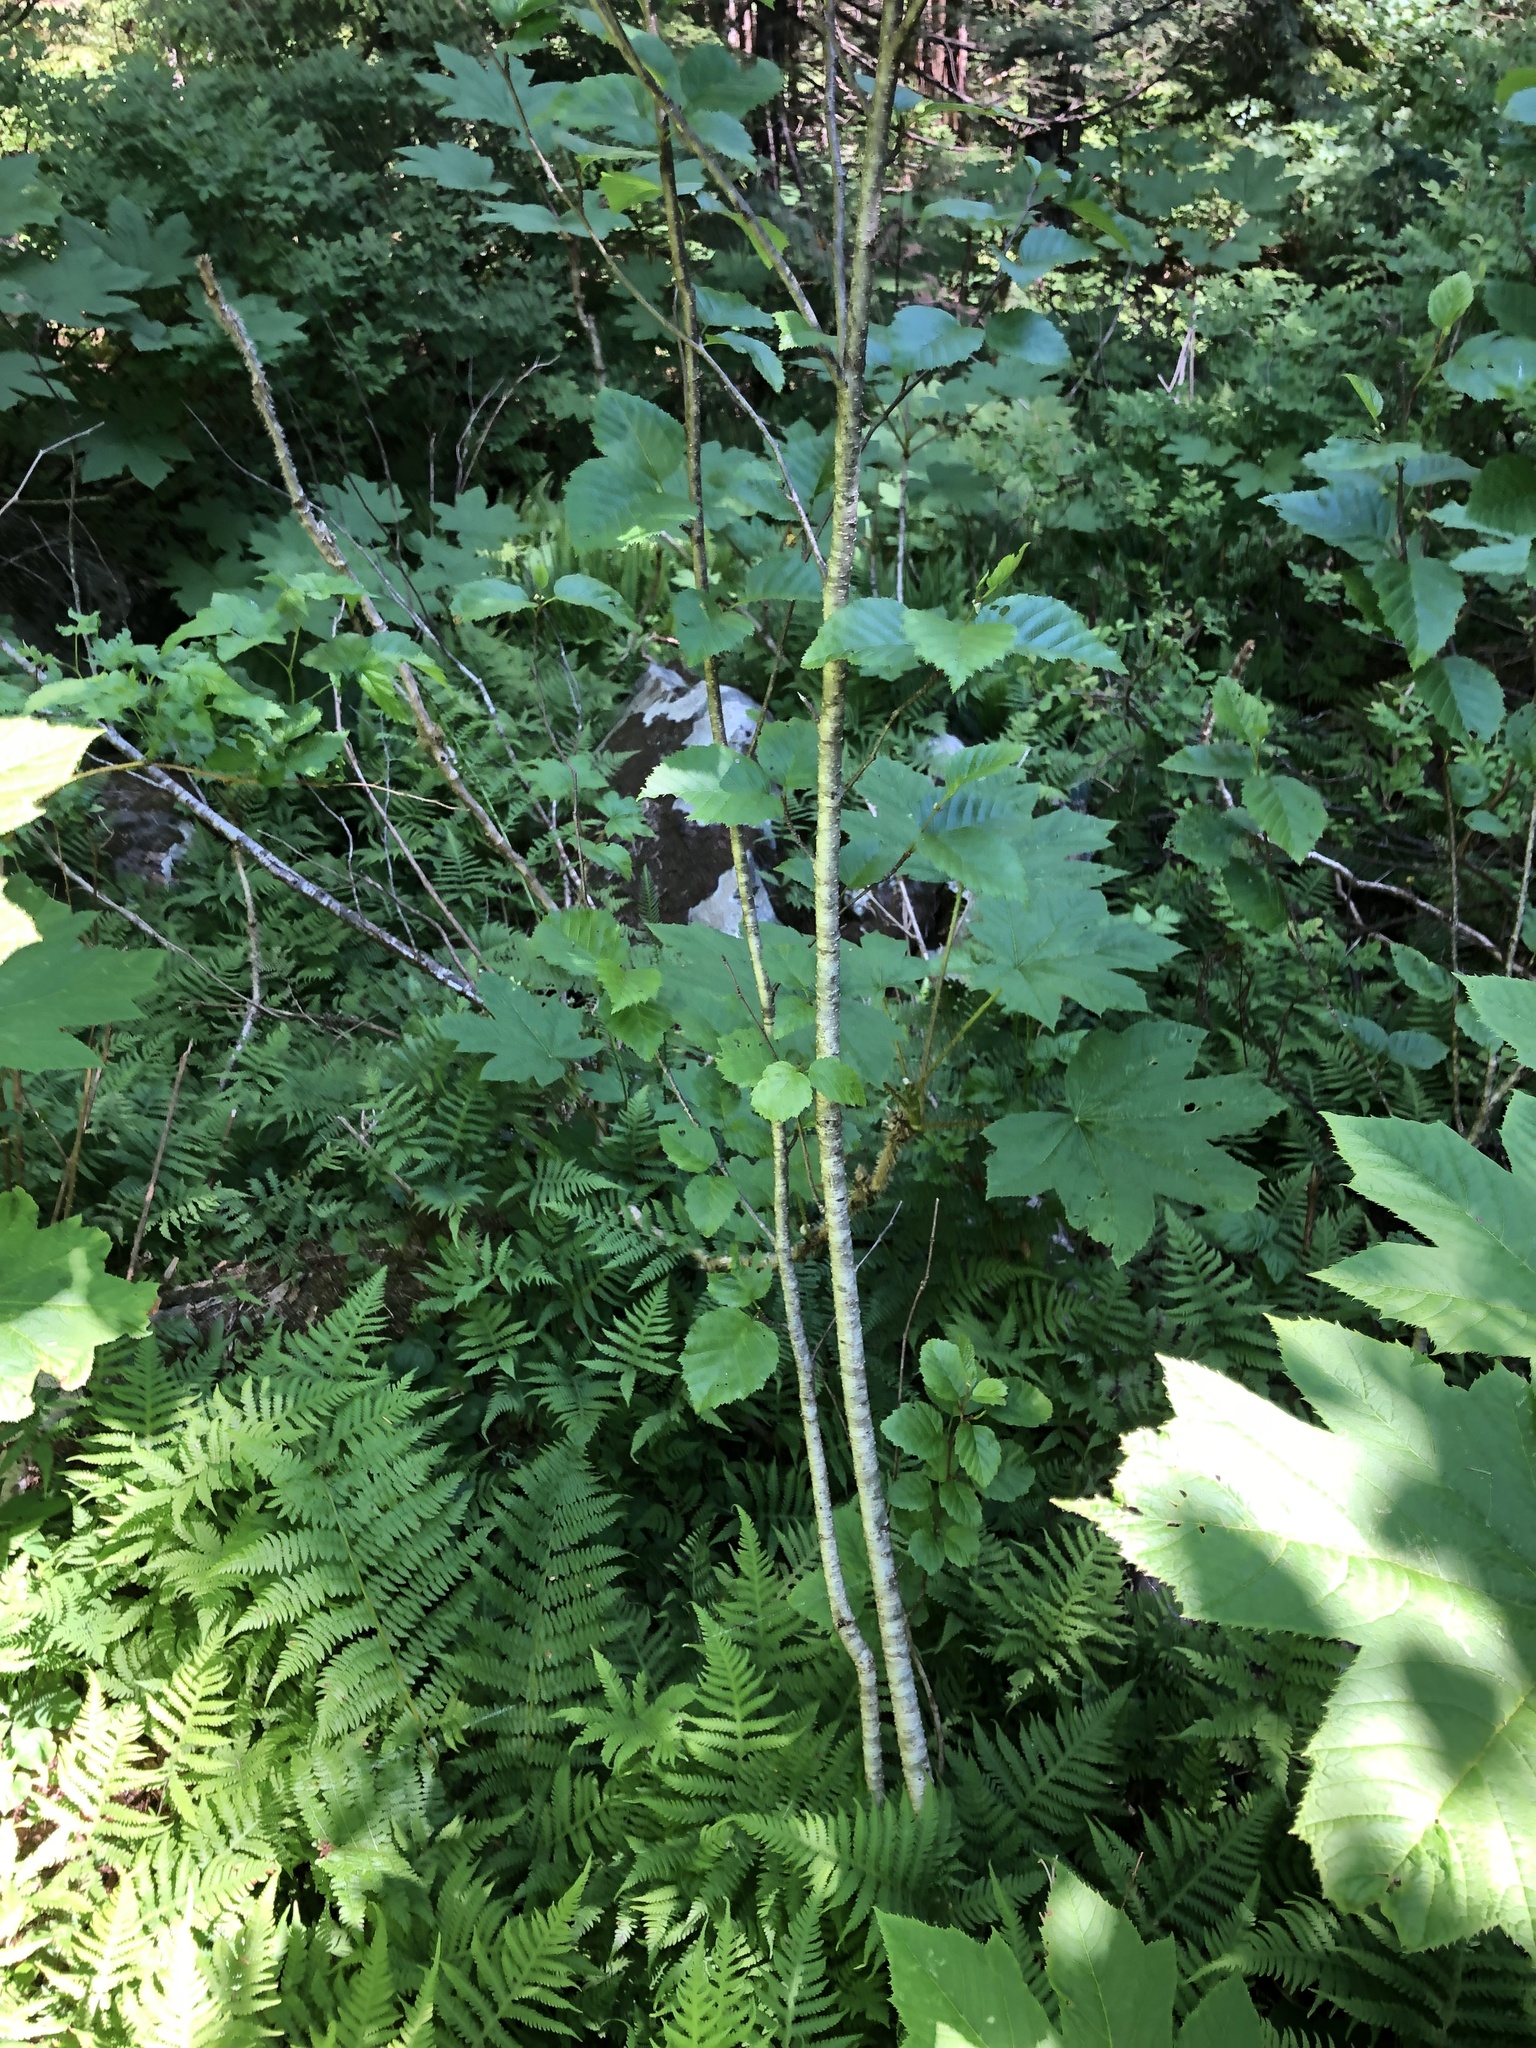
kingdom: Plantae
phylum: Tracheophyta
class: Magnoliopsida
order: Fagales
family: Betulaceae
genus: Alnus
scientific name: Alnus alnobetula
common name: Green alder
